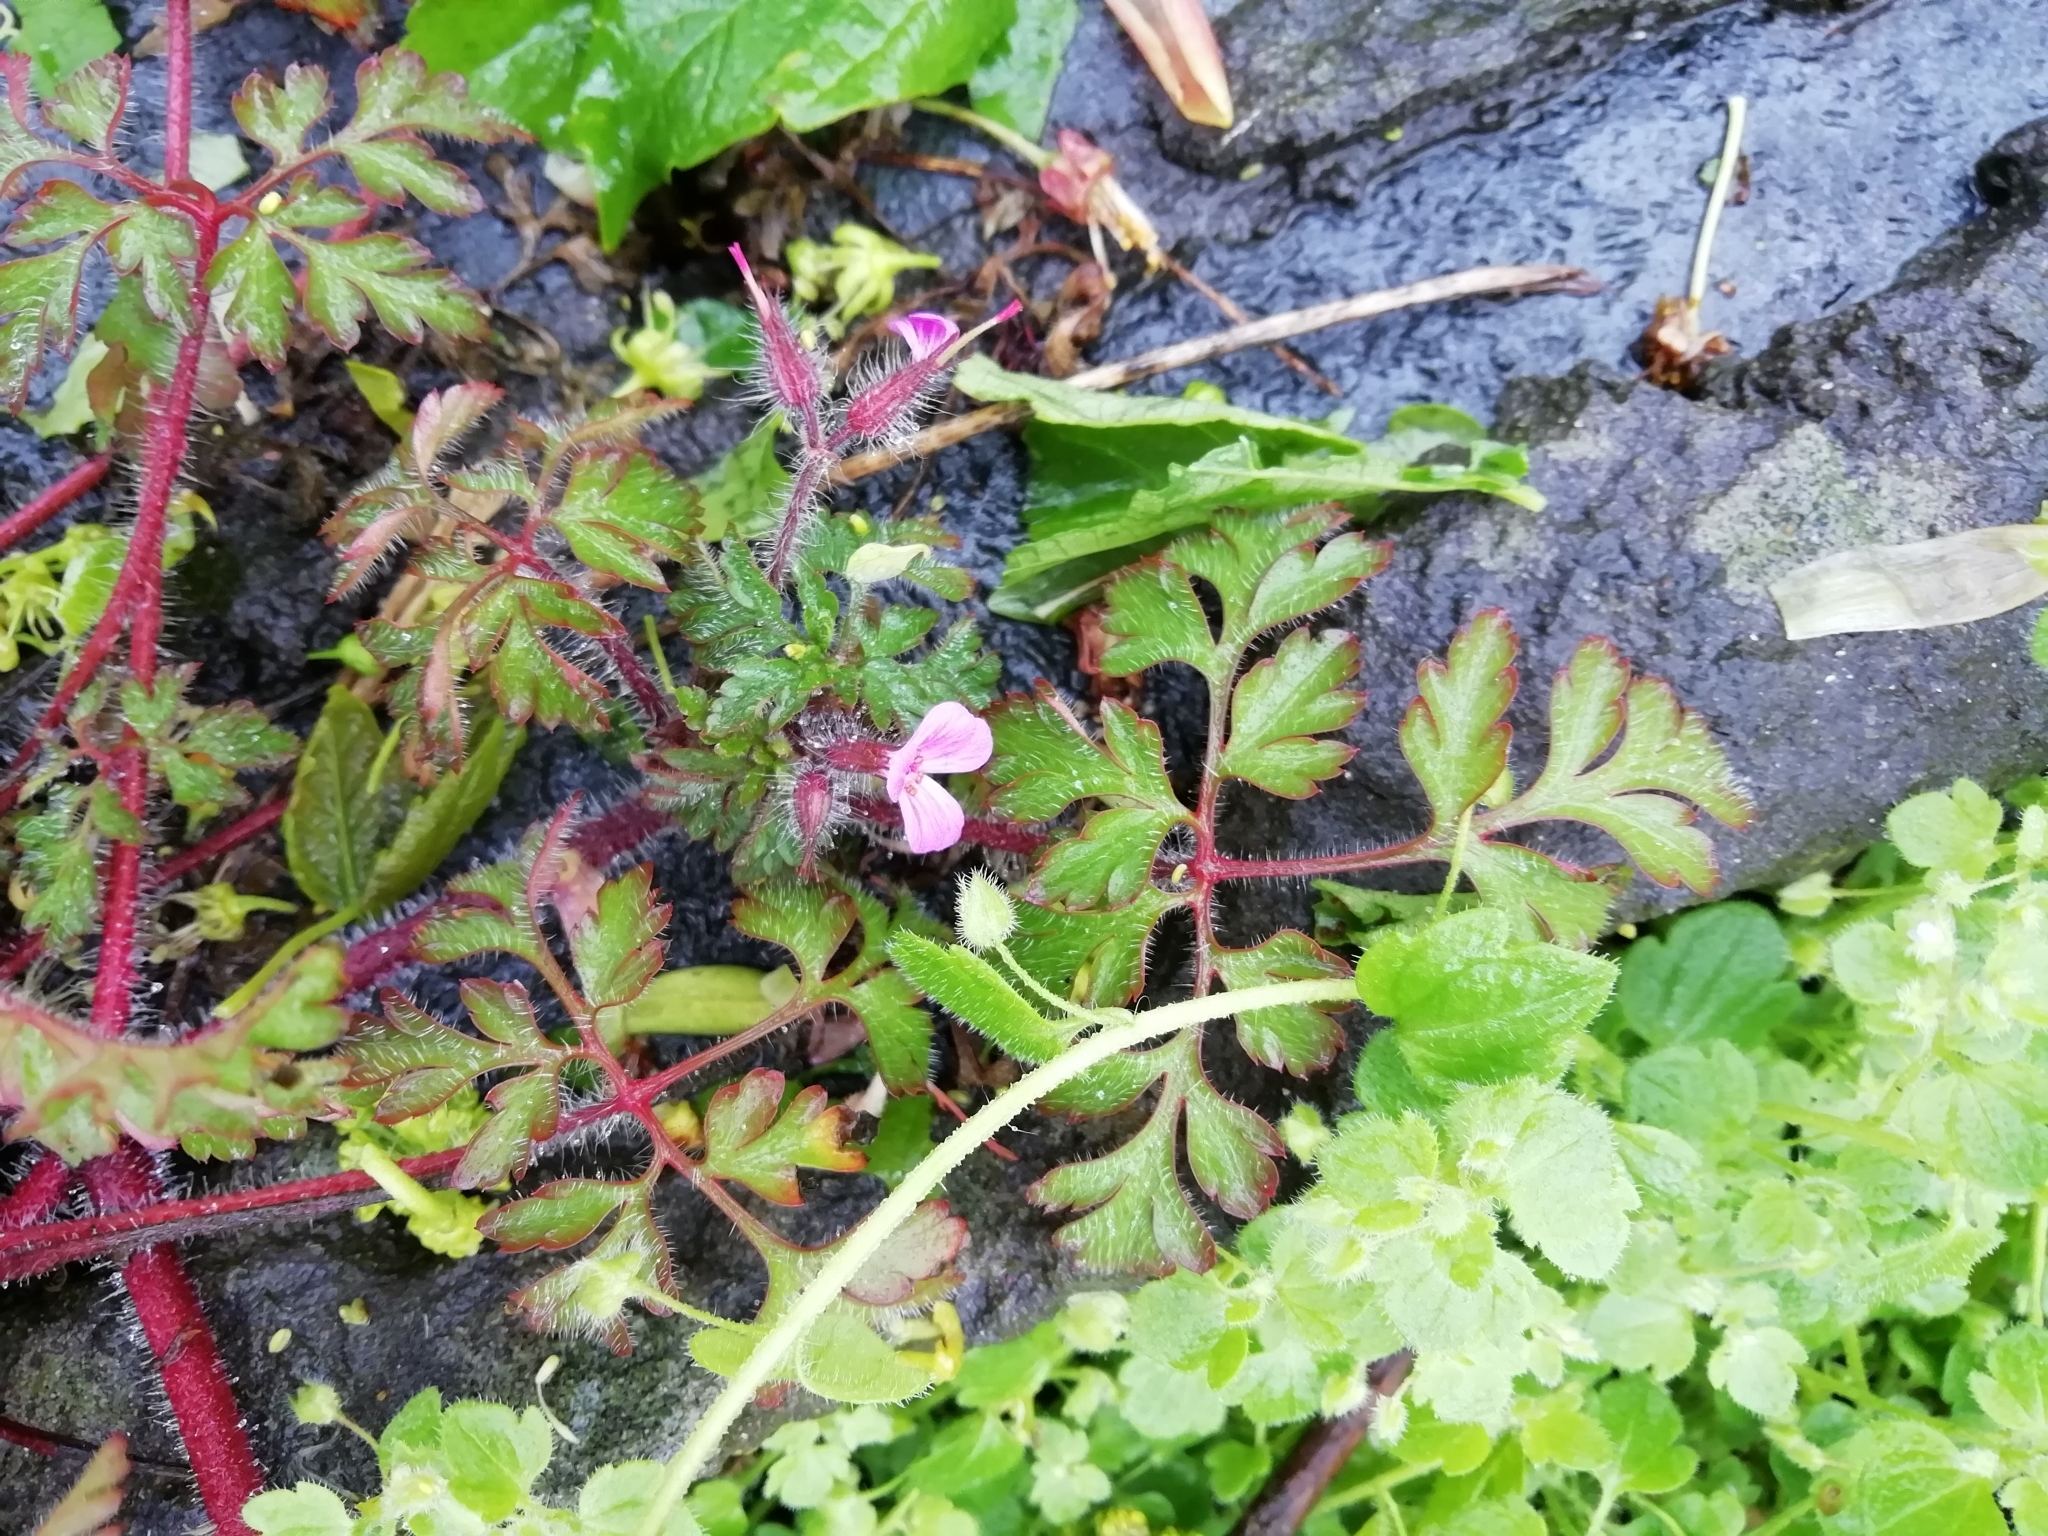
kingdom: Plantae
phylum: Tracheophyta
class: Magnoliopsida
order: Geraniales
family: Geraniaceae
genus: Geranium
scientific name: Geranium robertianum
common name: Herb-robert
